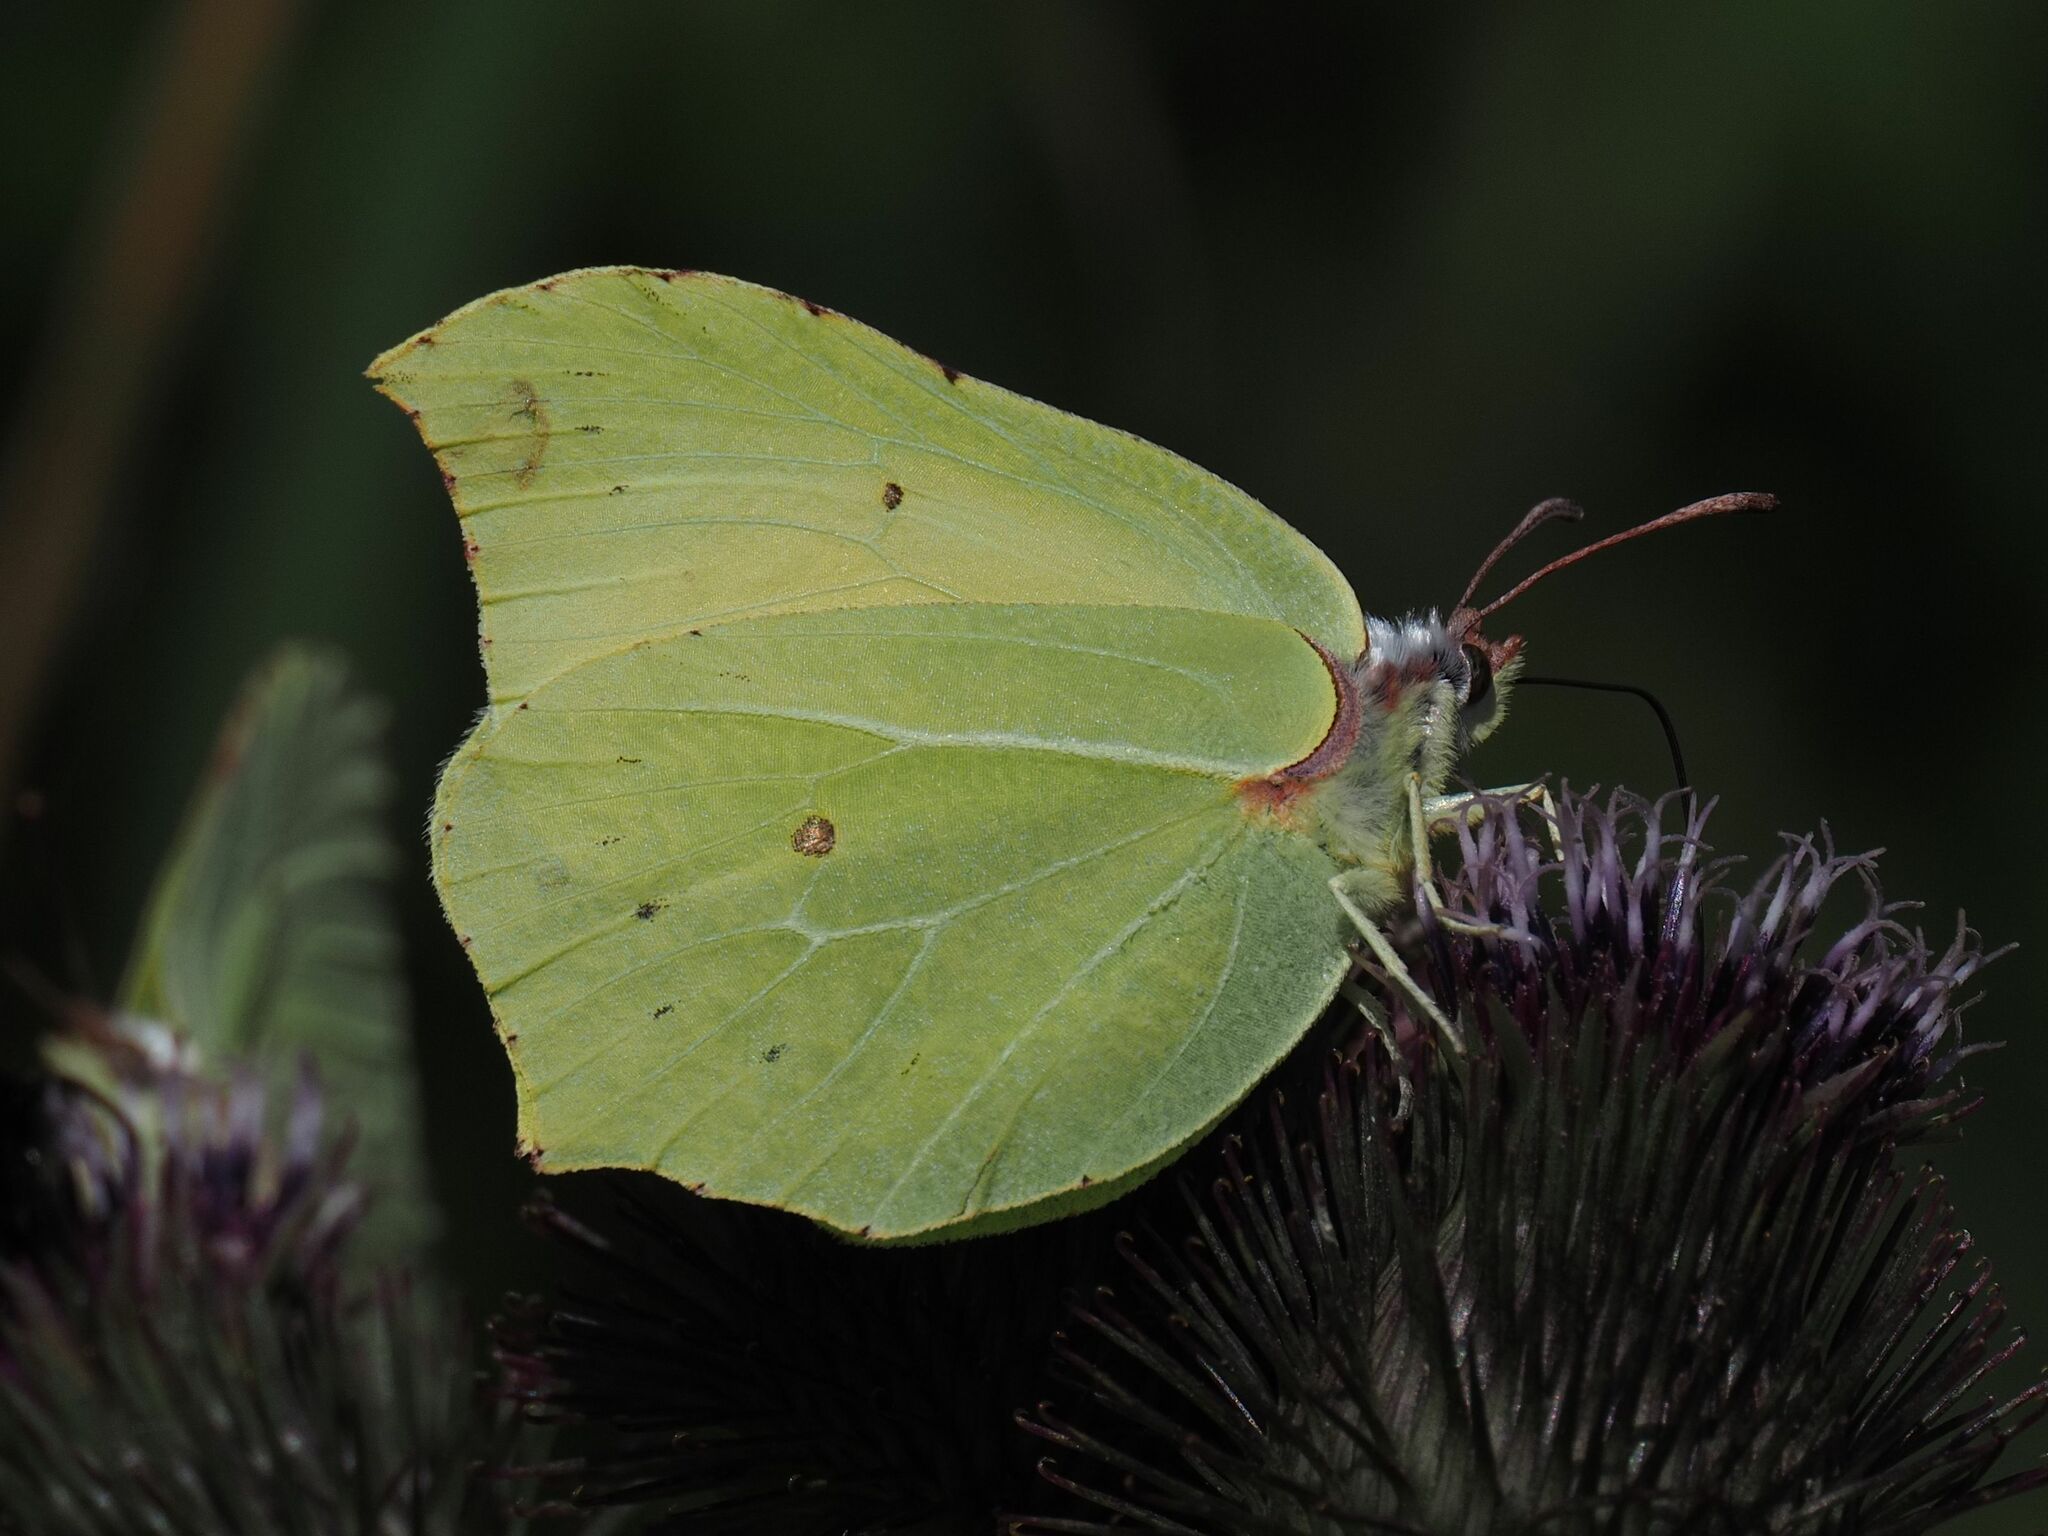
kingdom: Animalia
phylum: Arthropoda
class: Insecta
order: Lepidoptera
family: Pieridae
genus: Gonepteryx
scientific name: Gonepteryx rhamni
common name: Brimstone
